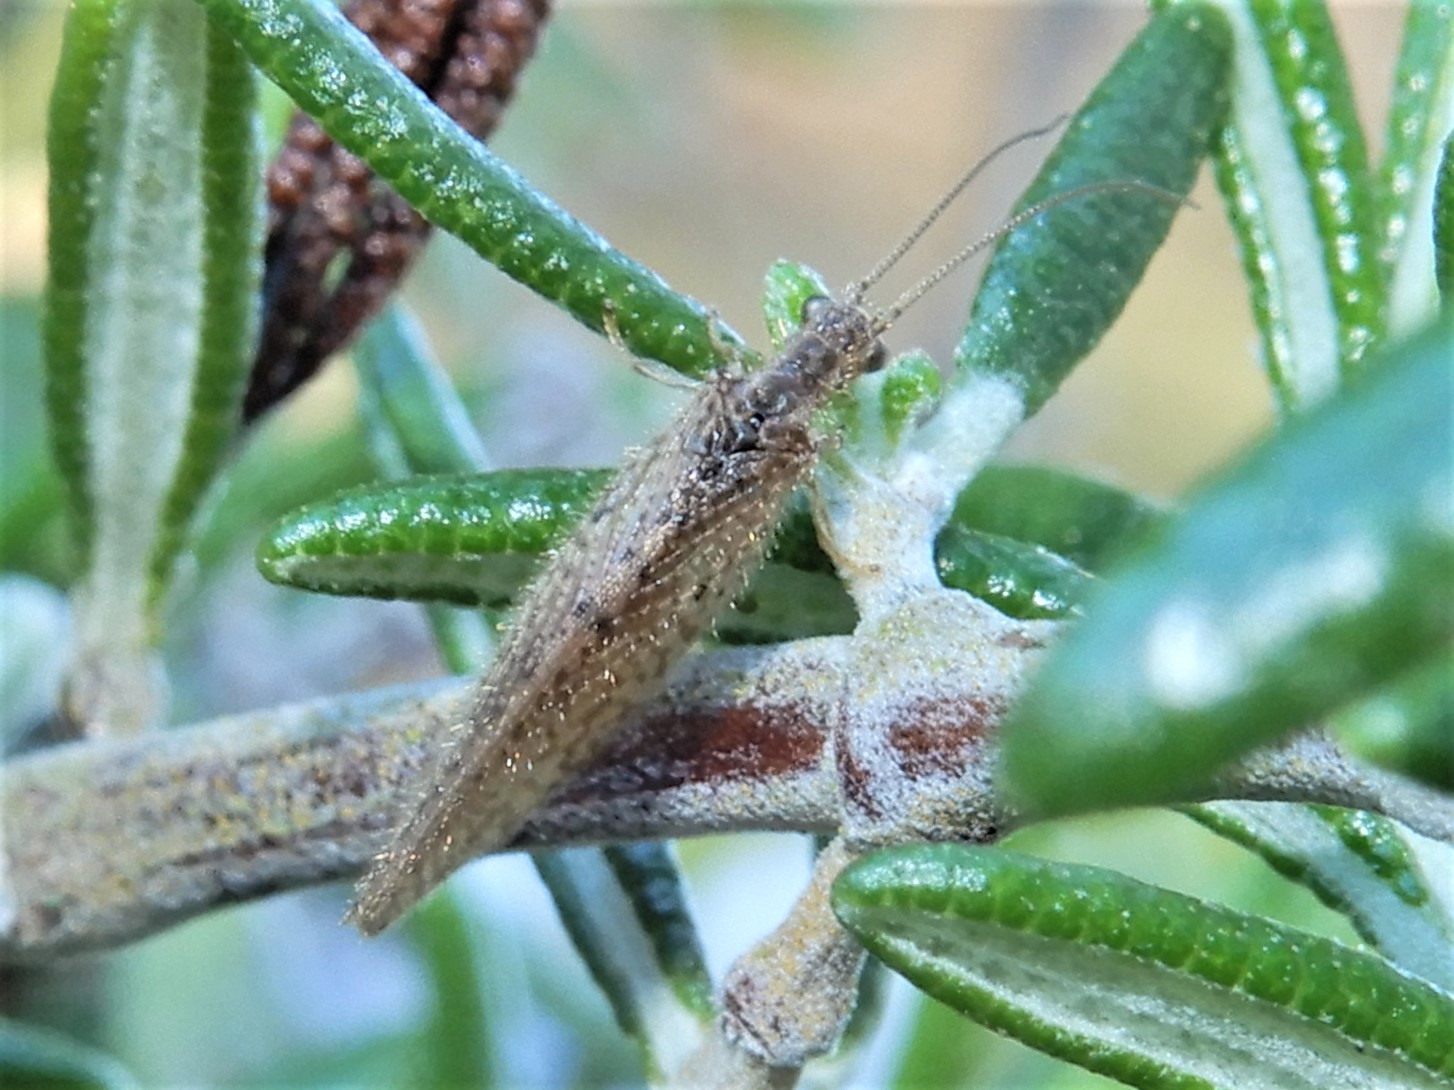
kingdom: Animalia
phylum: Arthropoda
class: Insecta
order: Neuroptera
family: Hemerobiidae
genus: Micromus
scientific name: Micromus tasmaniae
